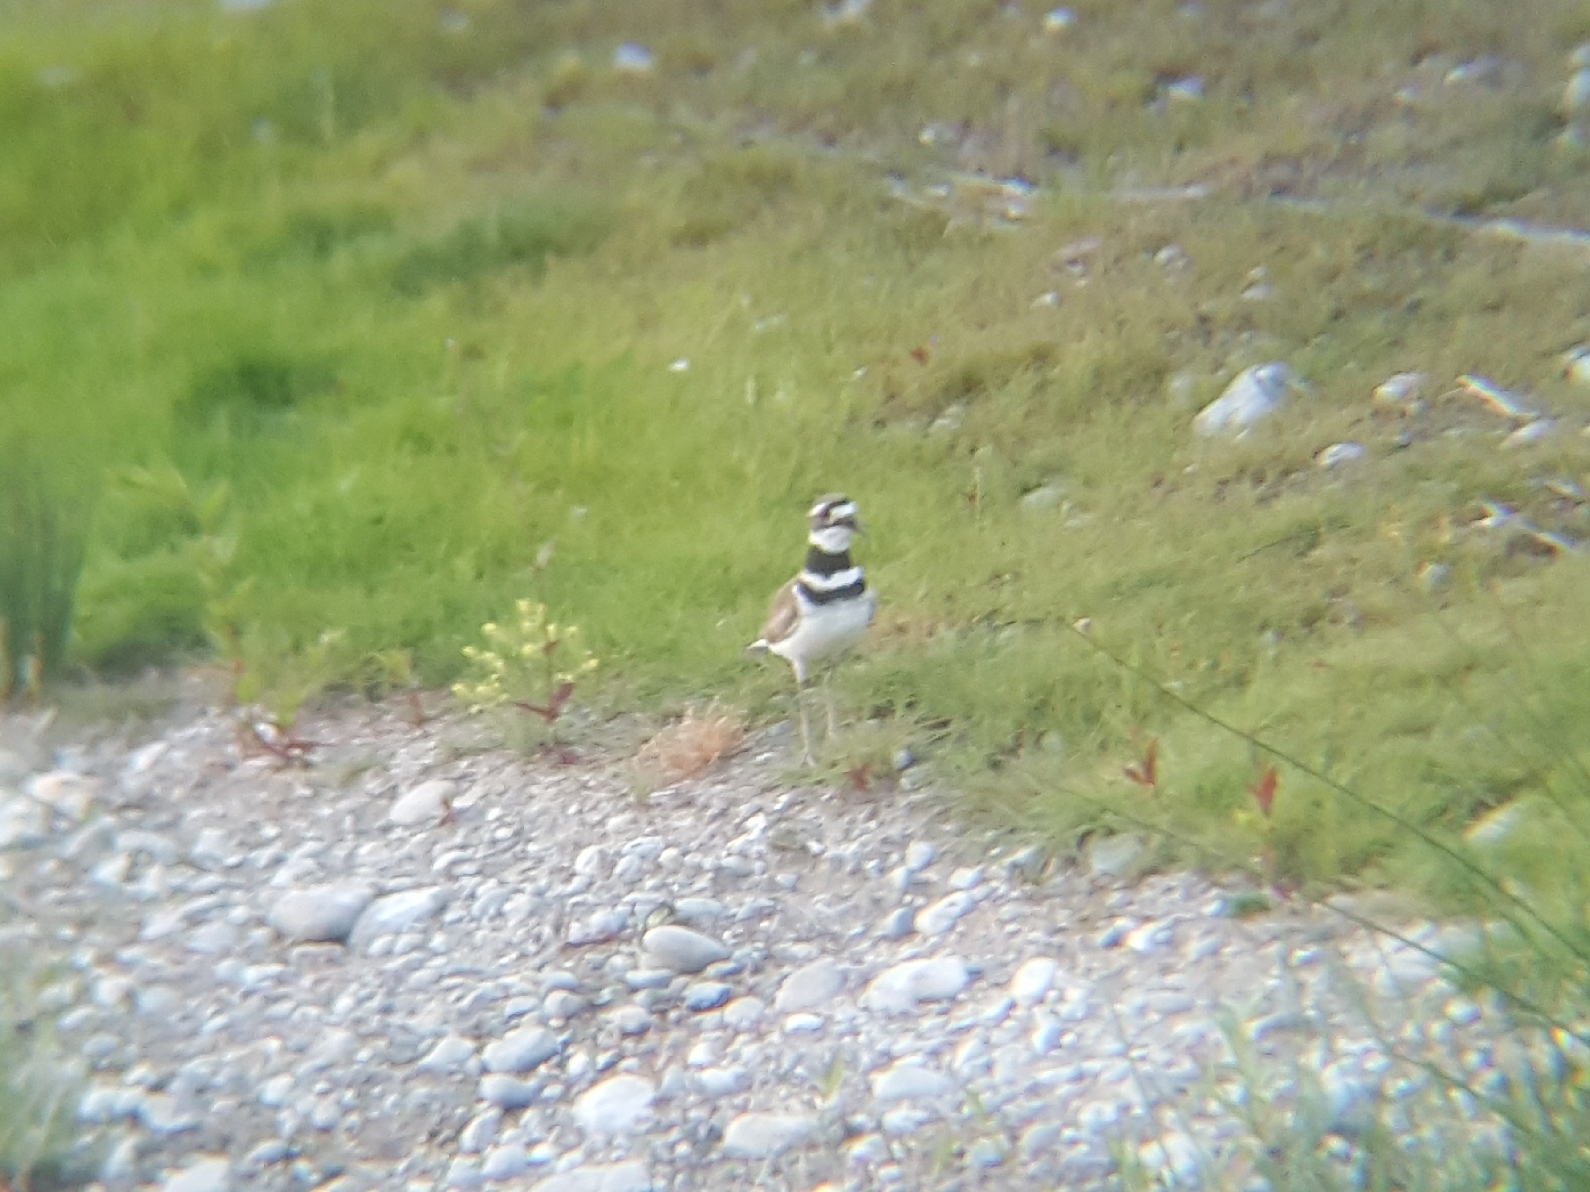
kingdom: Animalia
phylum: Chordata
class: Aves
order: Charadriiformes
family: Charadriidae
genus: Charadrius
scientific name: Charadrius vociferus
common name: Killdeer
